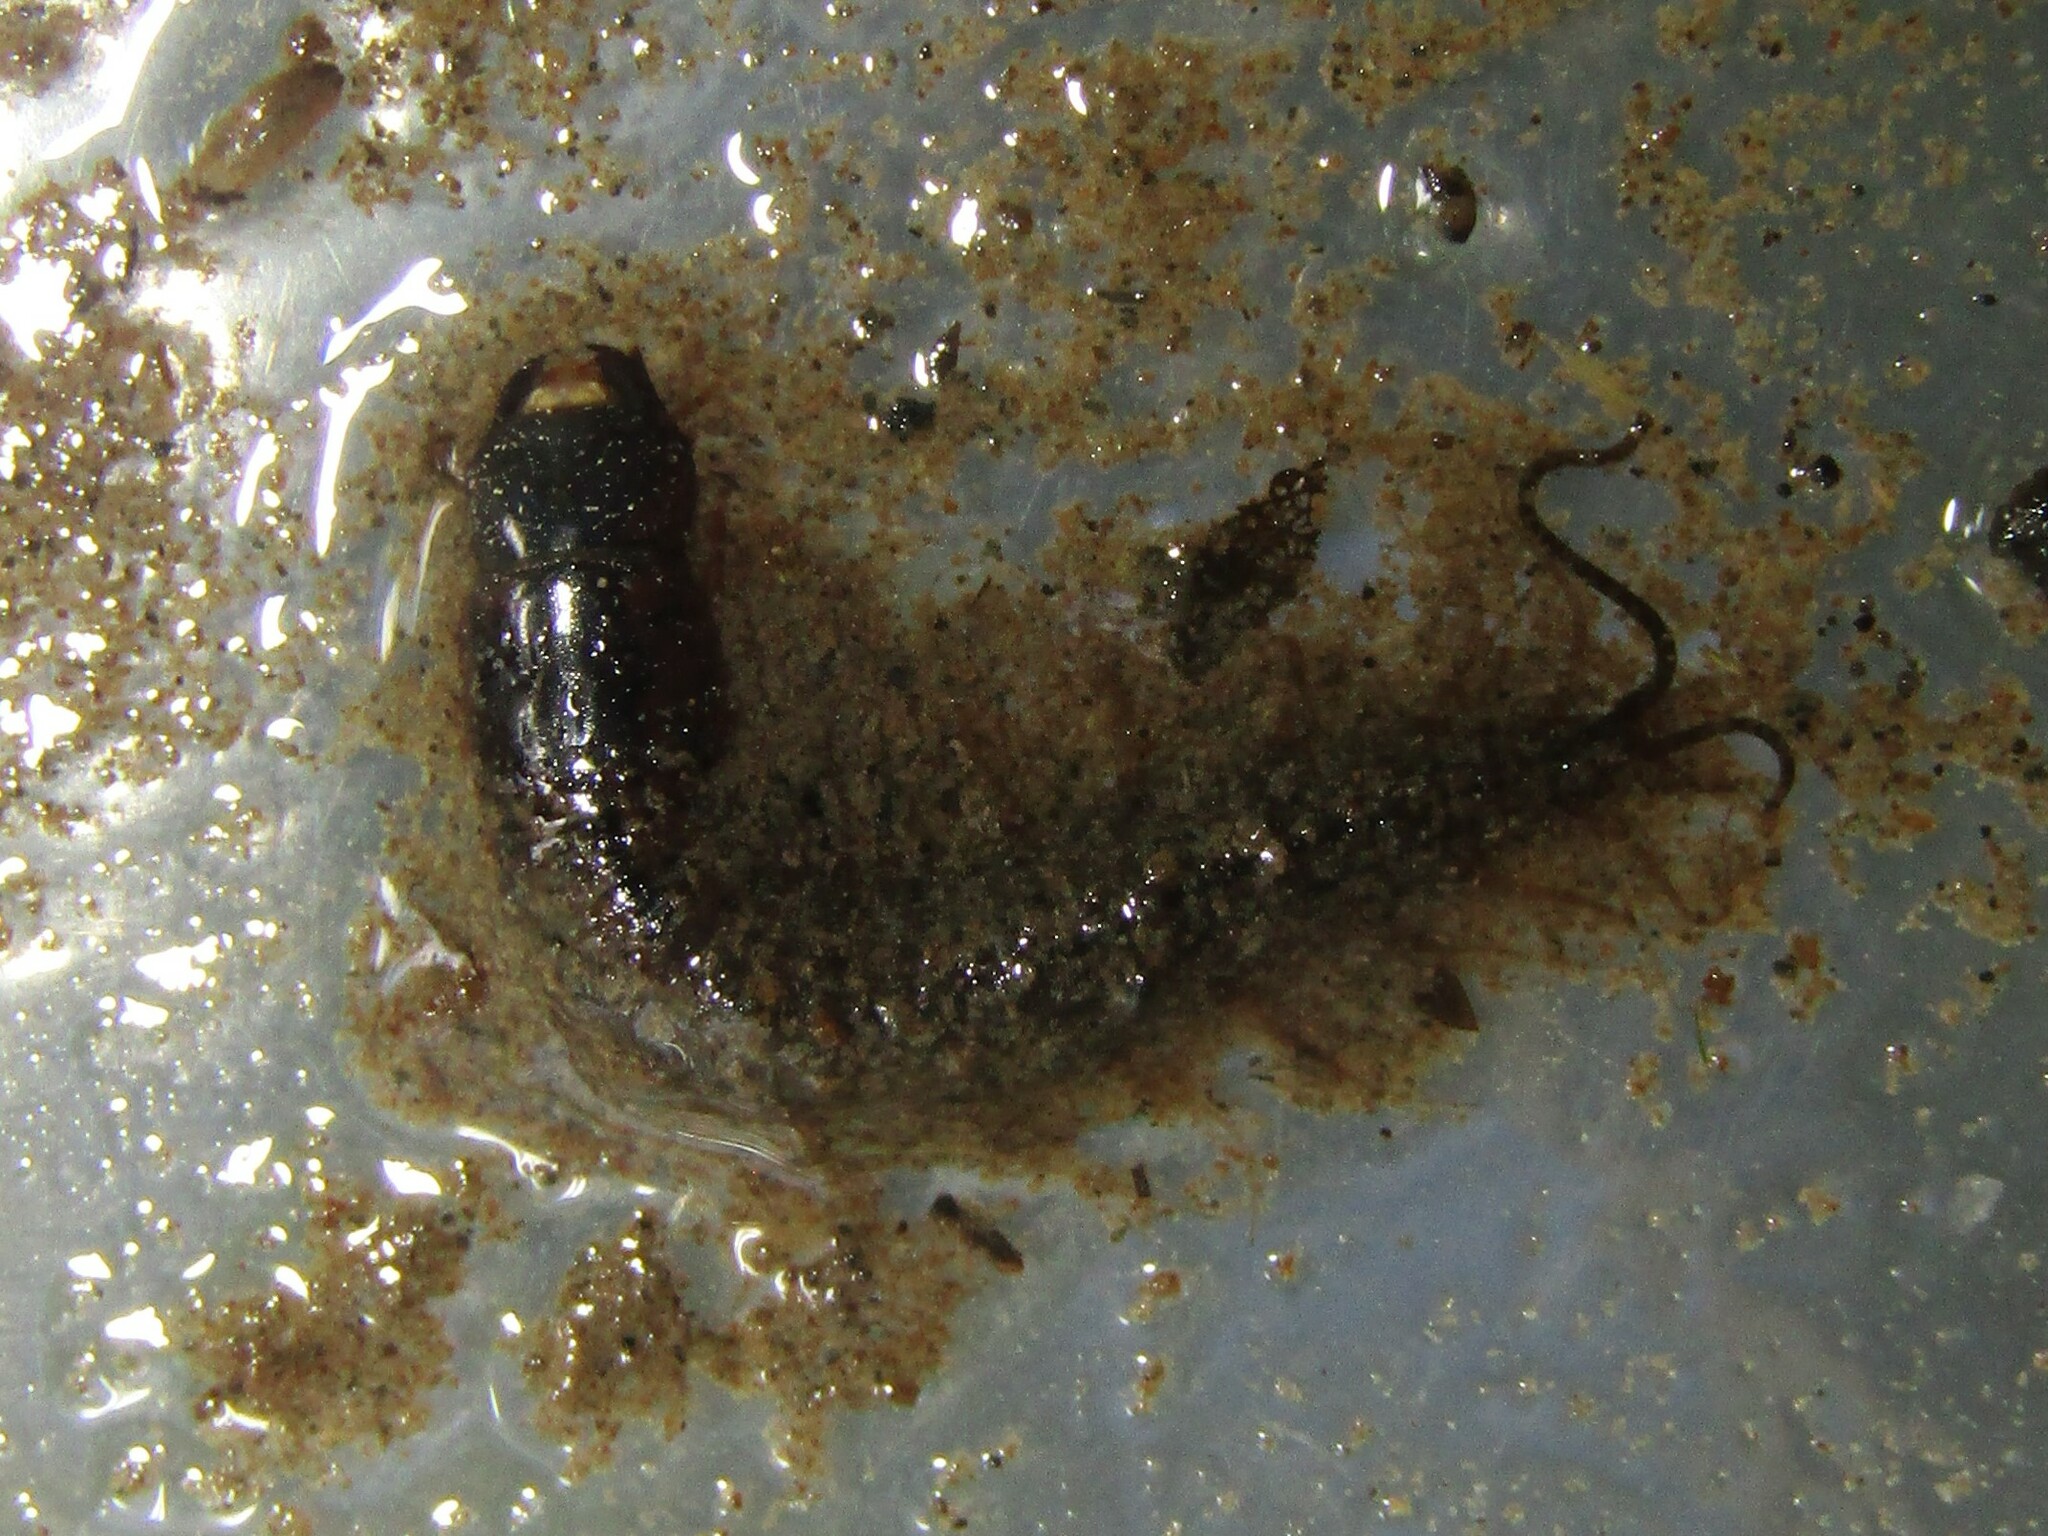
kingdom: Animalia
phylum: Arthropoda
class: Insecta
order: Megaloptera
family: Corydalidae
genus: Chauliodes
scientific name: Chauliodes rastricornis
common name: Spring fishfly
